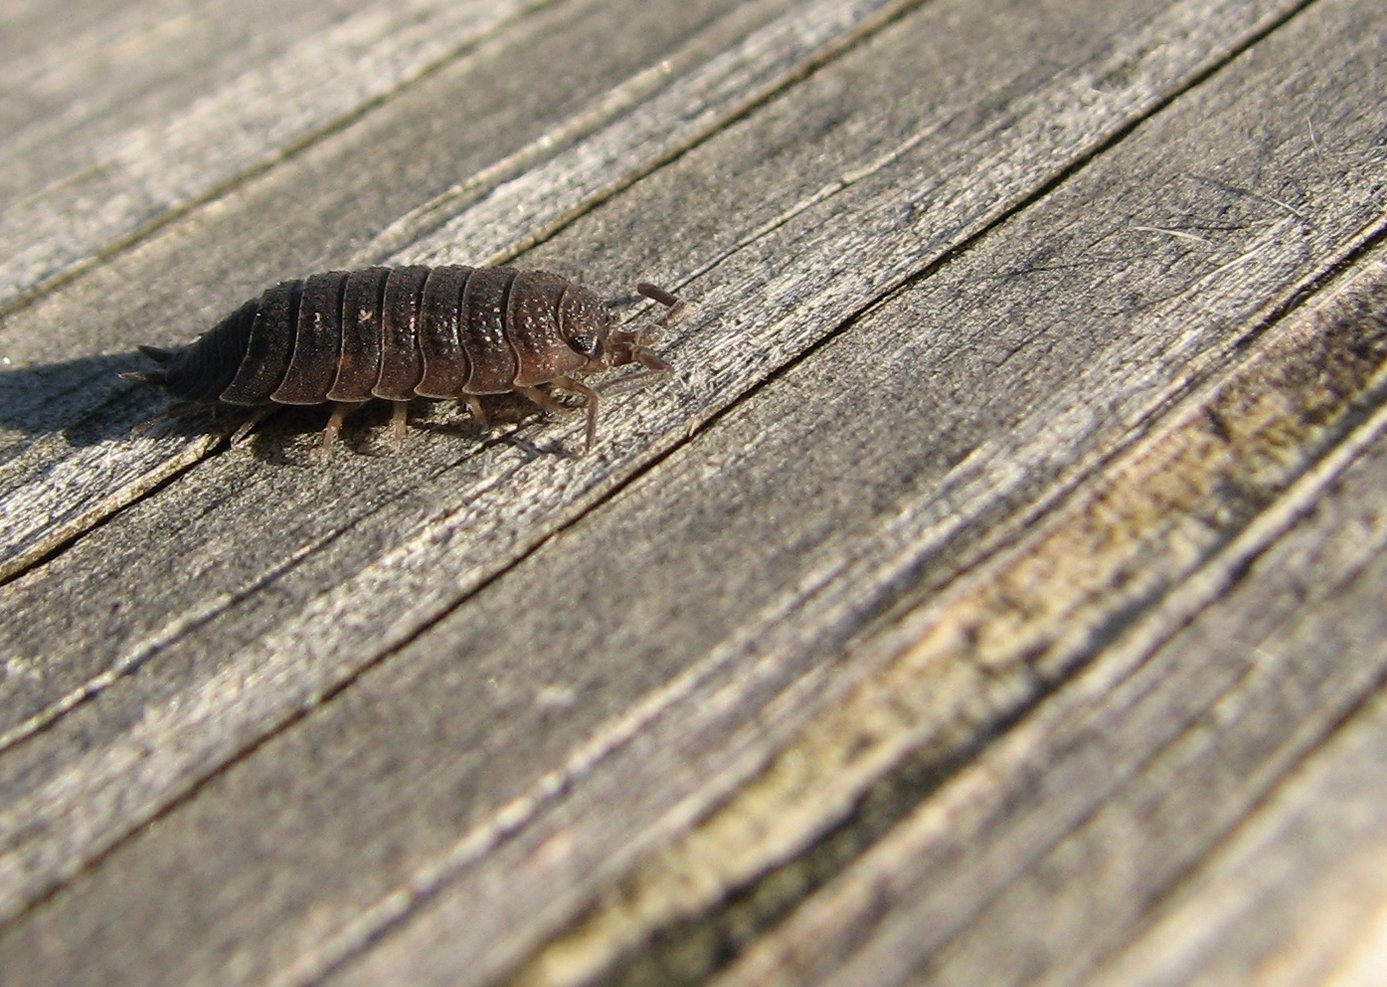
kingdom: Animalia
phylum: Arthropoda
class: Malacostraca
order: Isopoda
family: Porcellionidae
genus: Porcellio
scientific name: Porcellio scaber
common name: Common rough woodlouse
